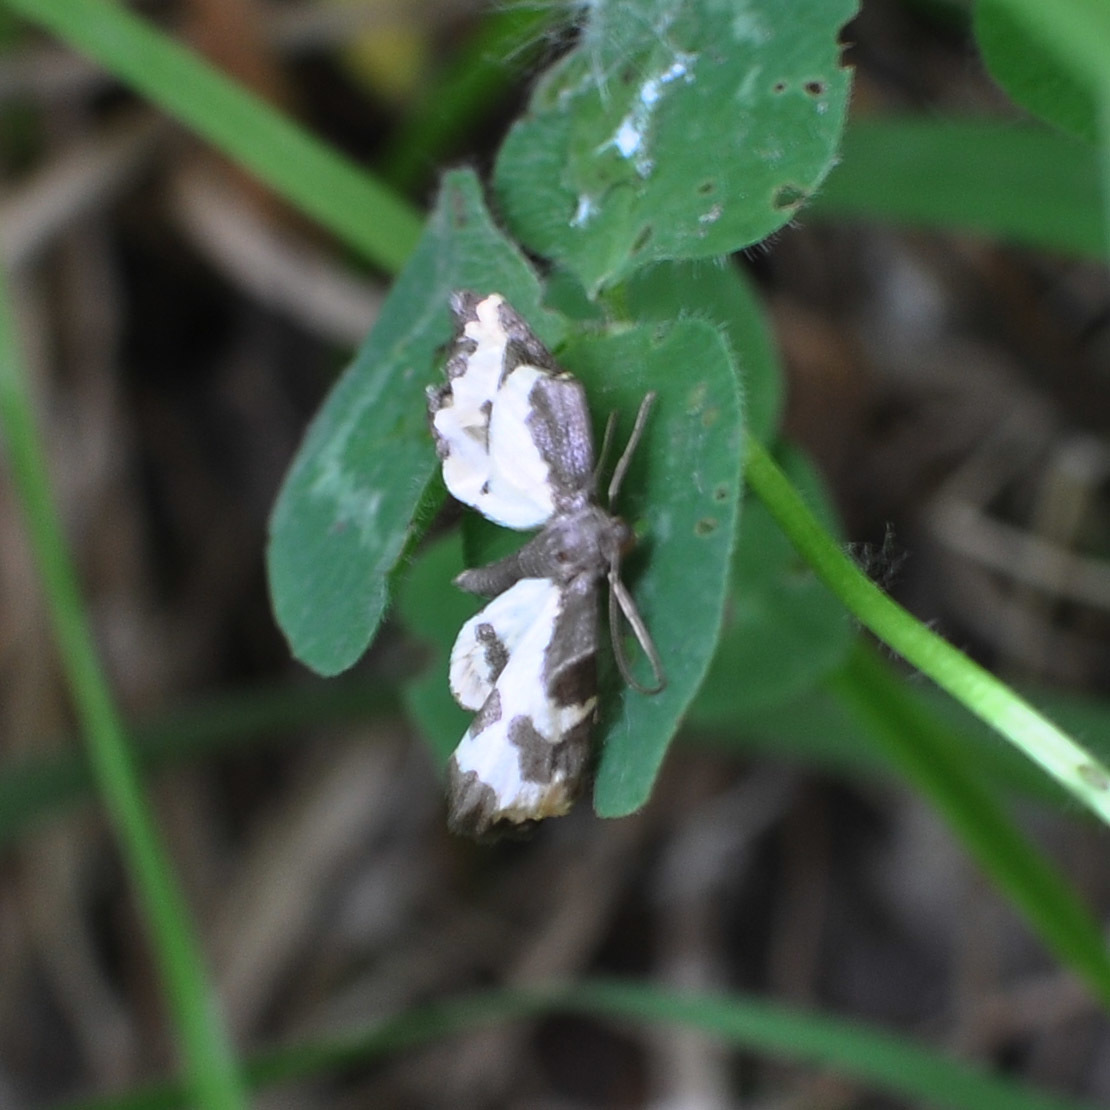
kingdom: Animalia
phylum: Arthropoda
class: Insecta
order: Lepidoptera
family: Geometridae
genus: Lomaspilis
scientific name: Lomaspilis marginata
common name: Clouded border
